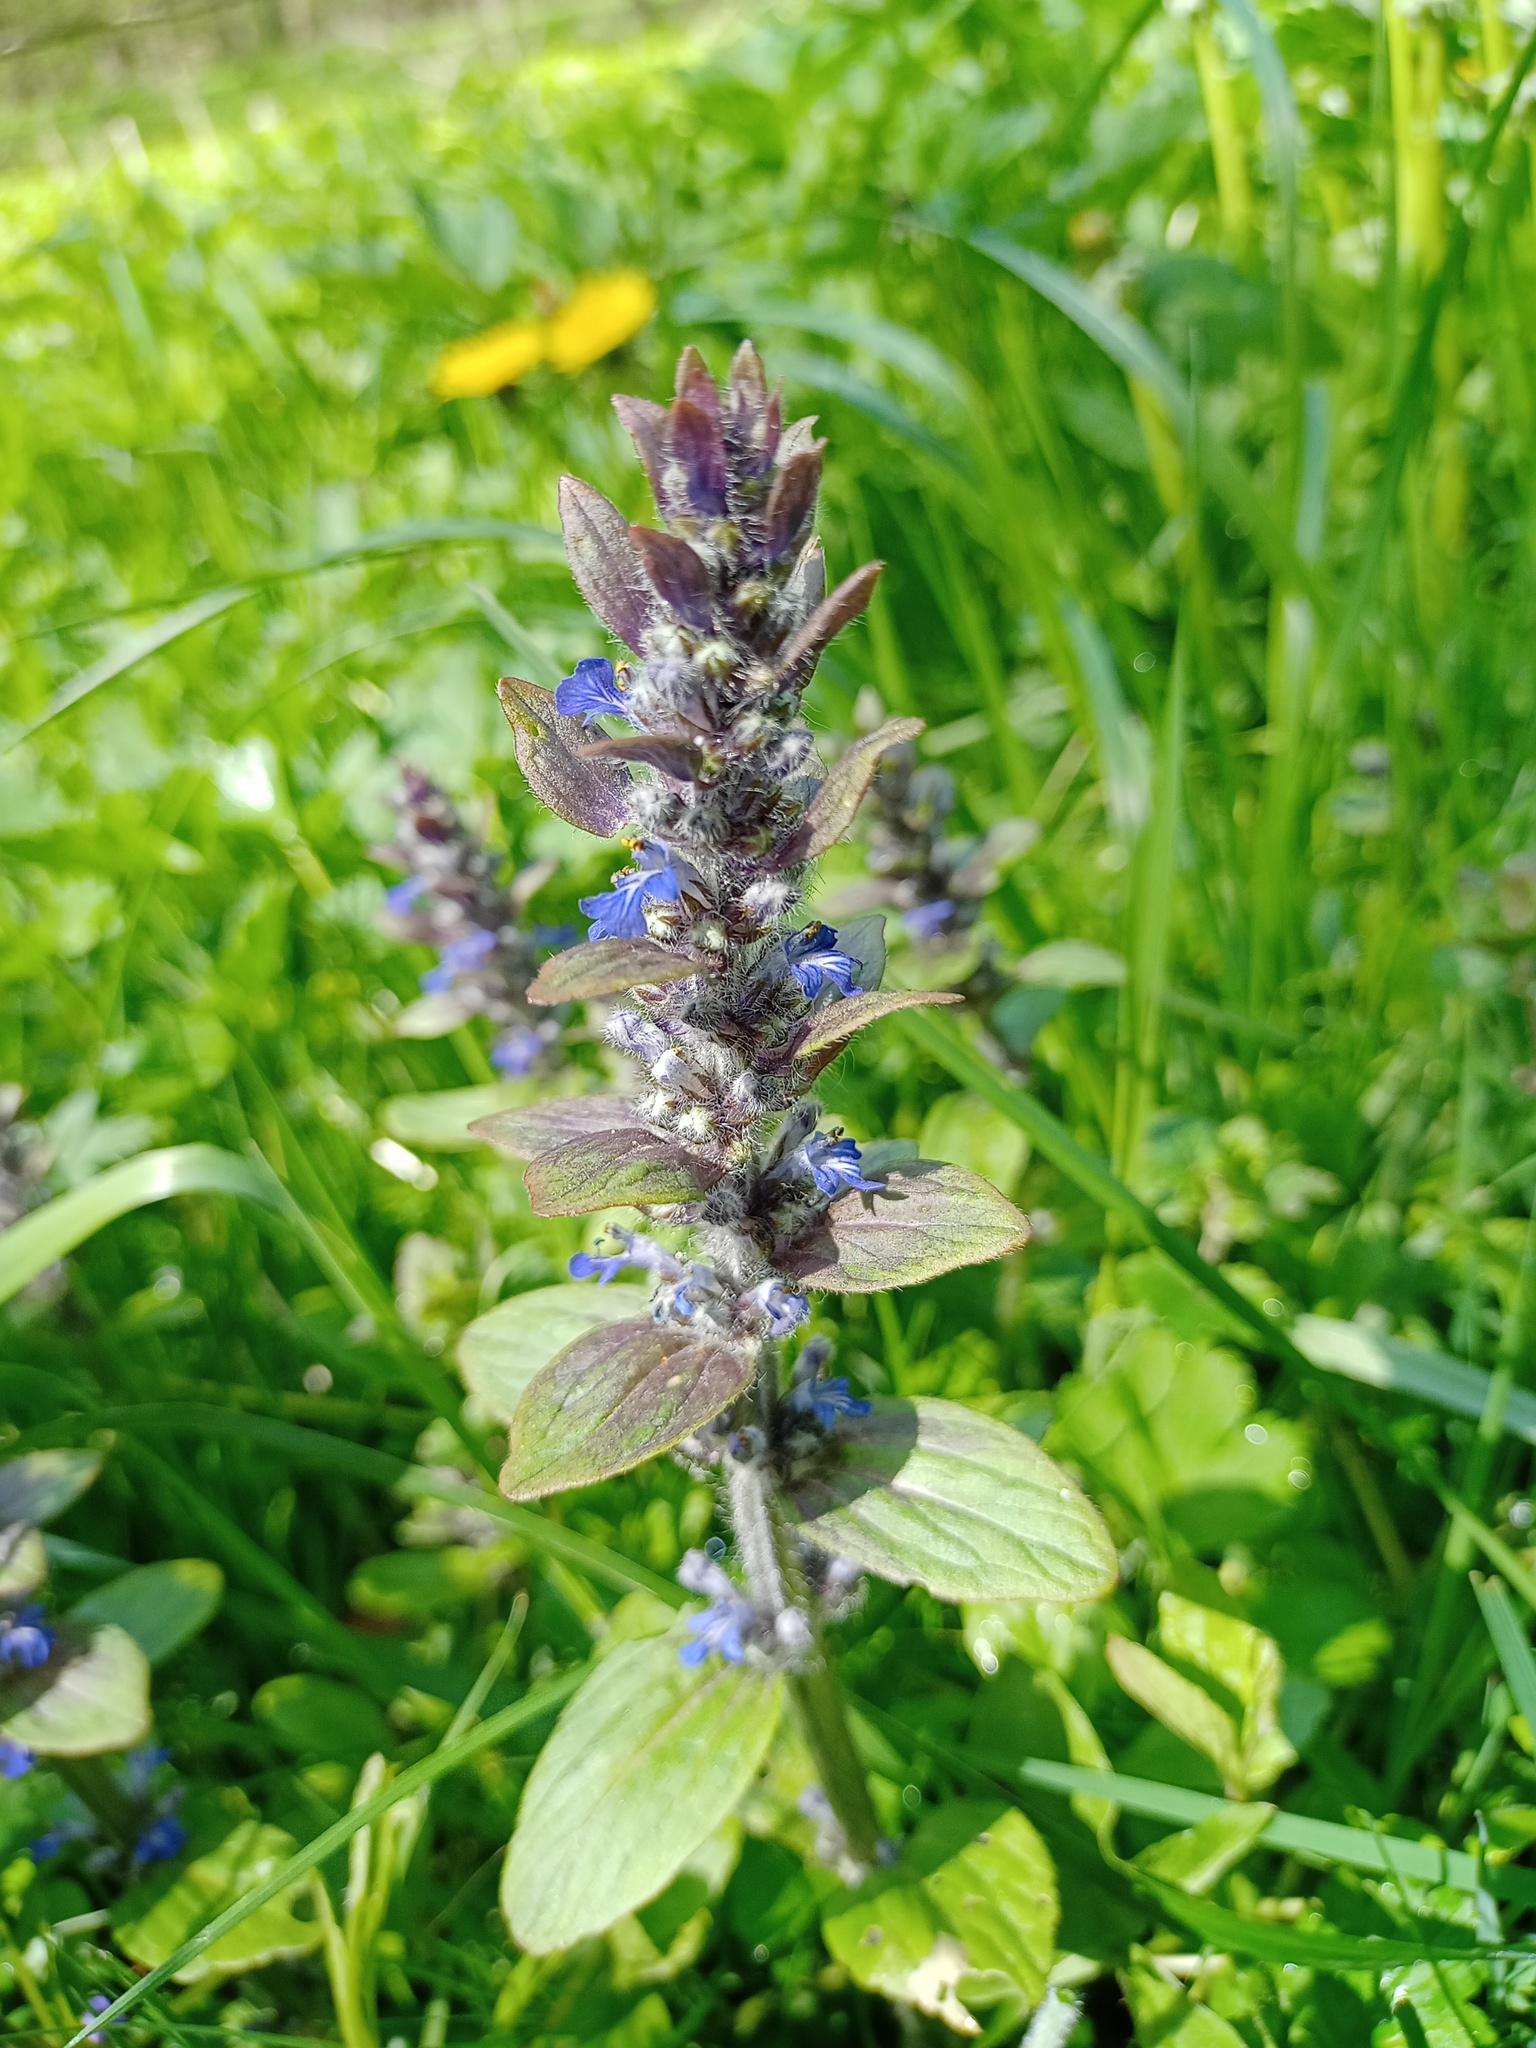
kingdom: Plantae
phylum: Tracheophyta
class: Magnoliopsida
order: Lamiales
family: Lamiaceae
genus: Ajuga
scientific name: Ajuga reptans
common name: Bugle
